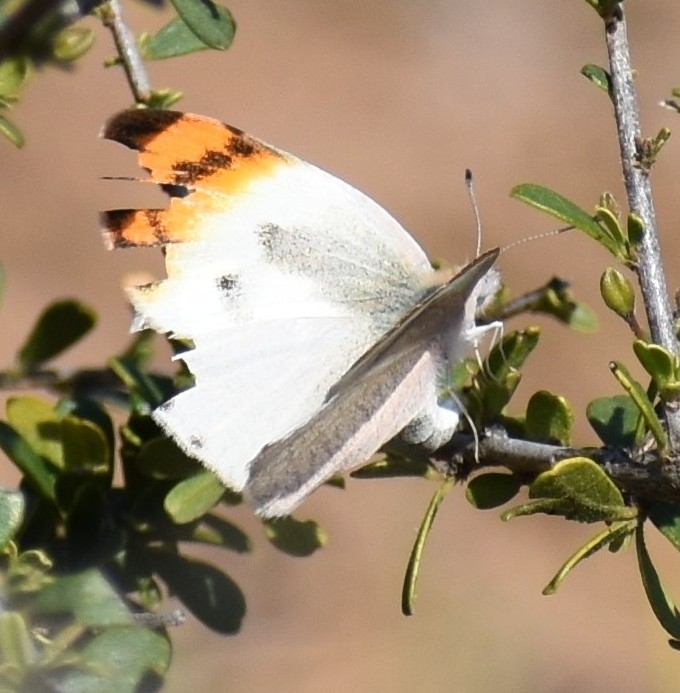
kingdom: Animalia
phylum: Arthropoda
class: Insecta
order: Lepidoptera
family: Pieridae
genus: Colotis
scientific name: Colotis evenina
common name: Common orange tip
